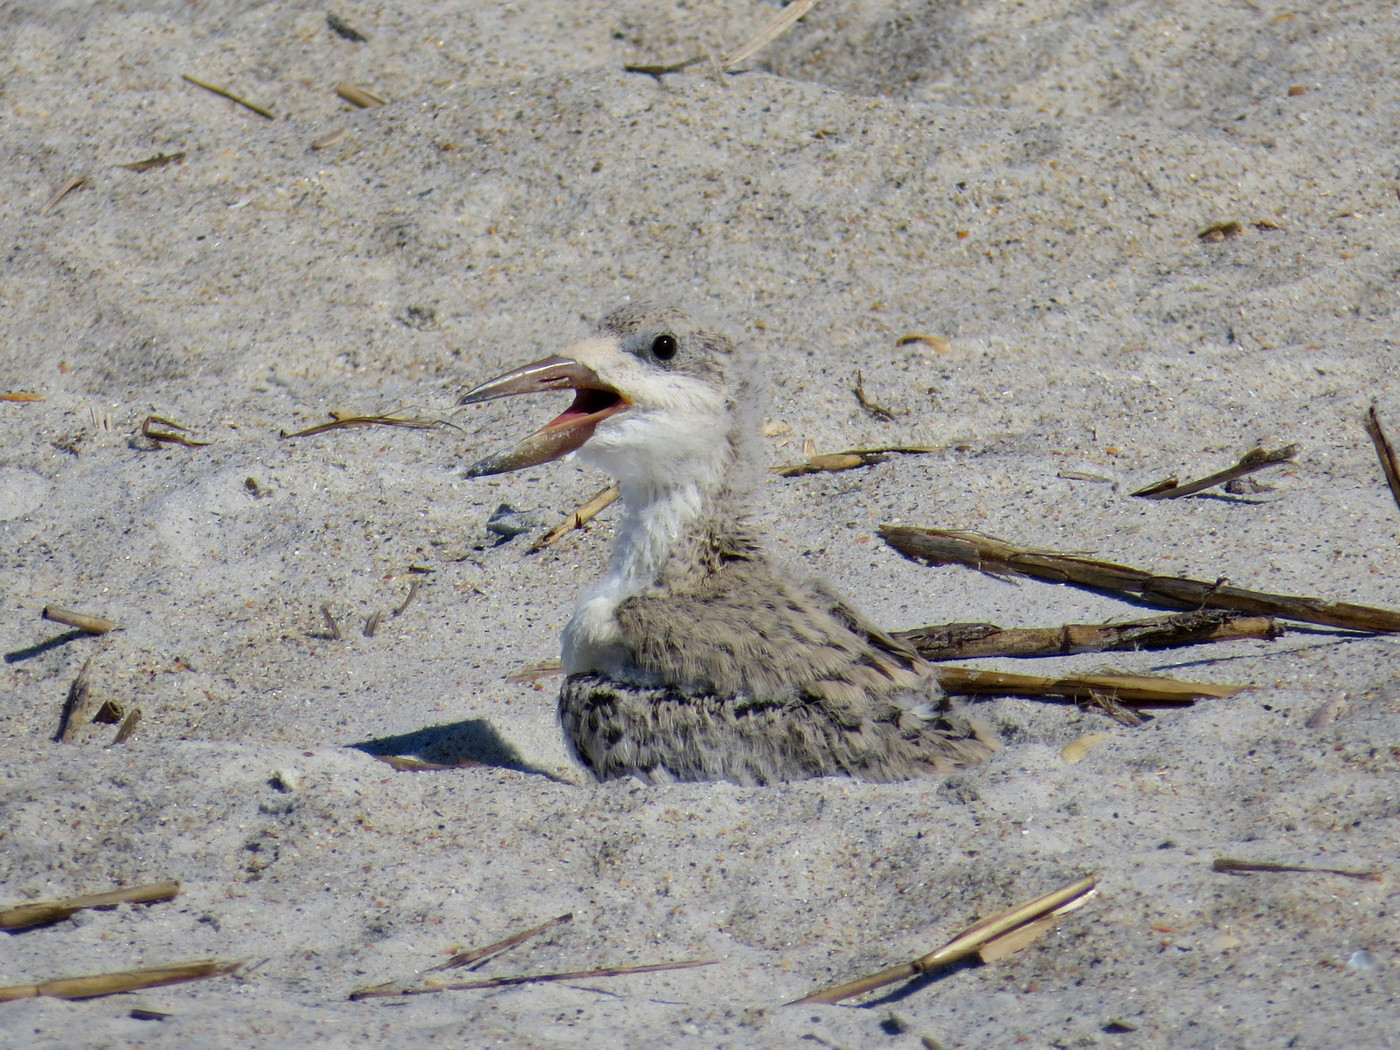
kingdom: Animalia
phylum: Chordata
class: Aves
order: Charadriiformes
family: Laridae
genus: Rynchops
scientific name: Rynchops niger
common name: Black skimmer
